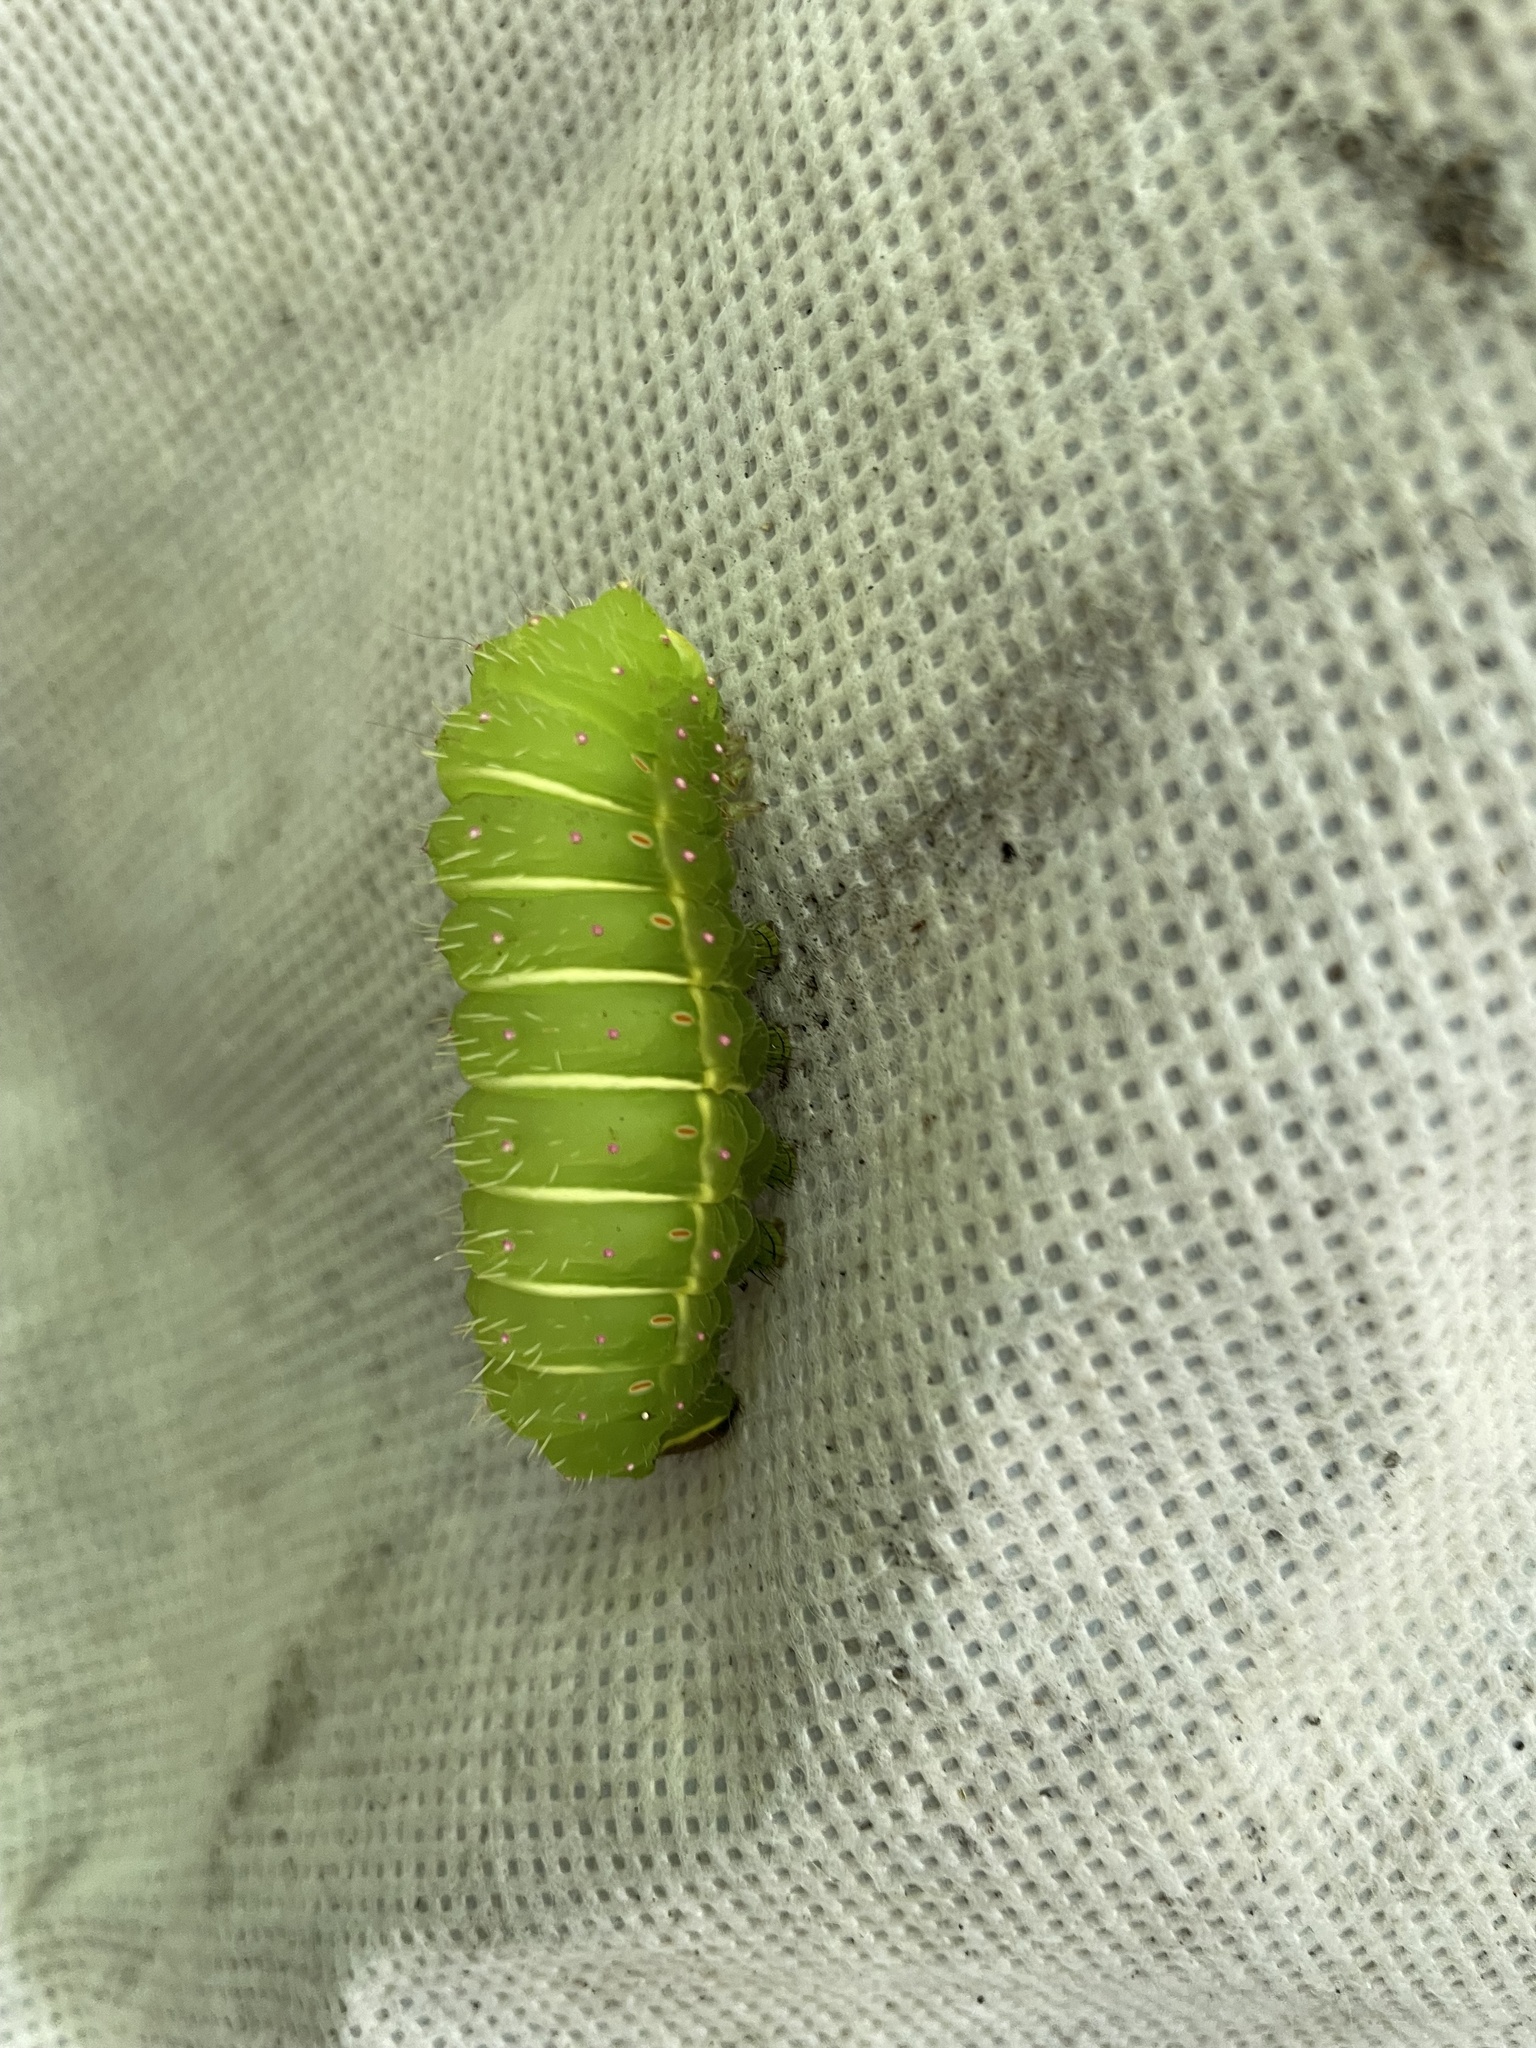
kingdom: Animalia
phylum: Arthropoda
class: Insecta
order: Lepidoptera
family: Saturniidae
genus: Actias
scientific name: Actias luna
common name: Luna moth
